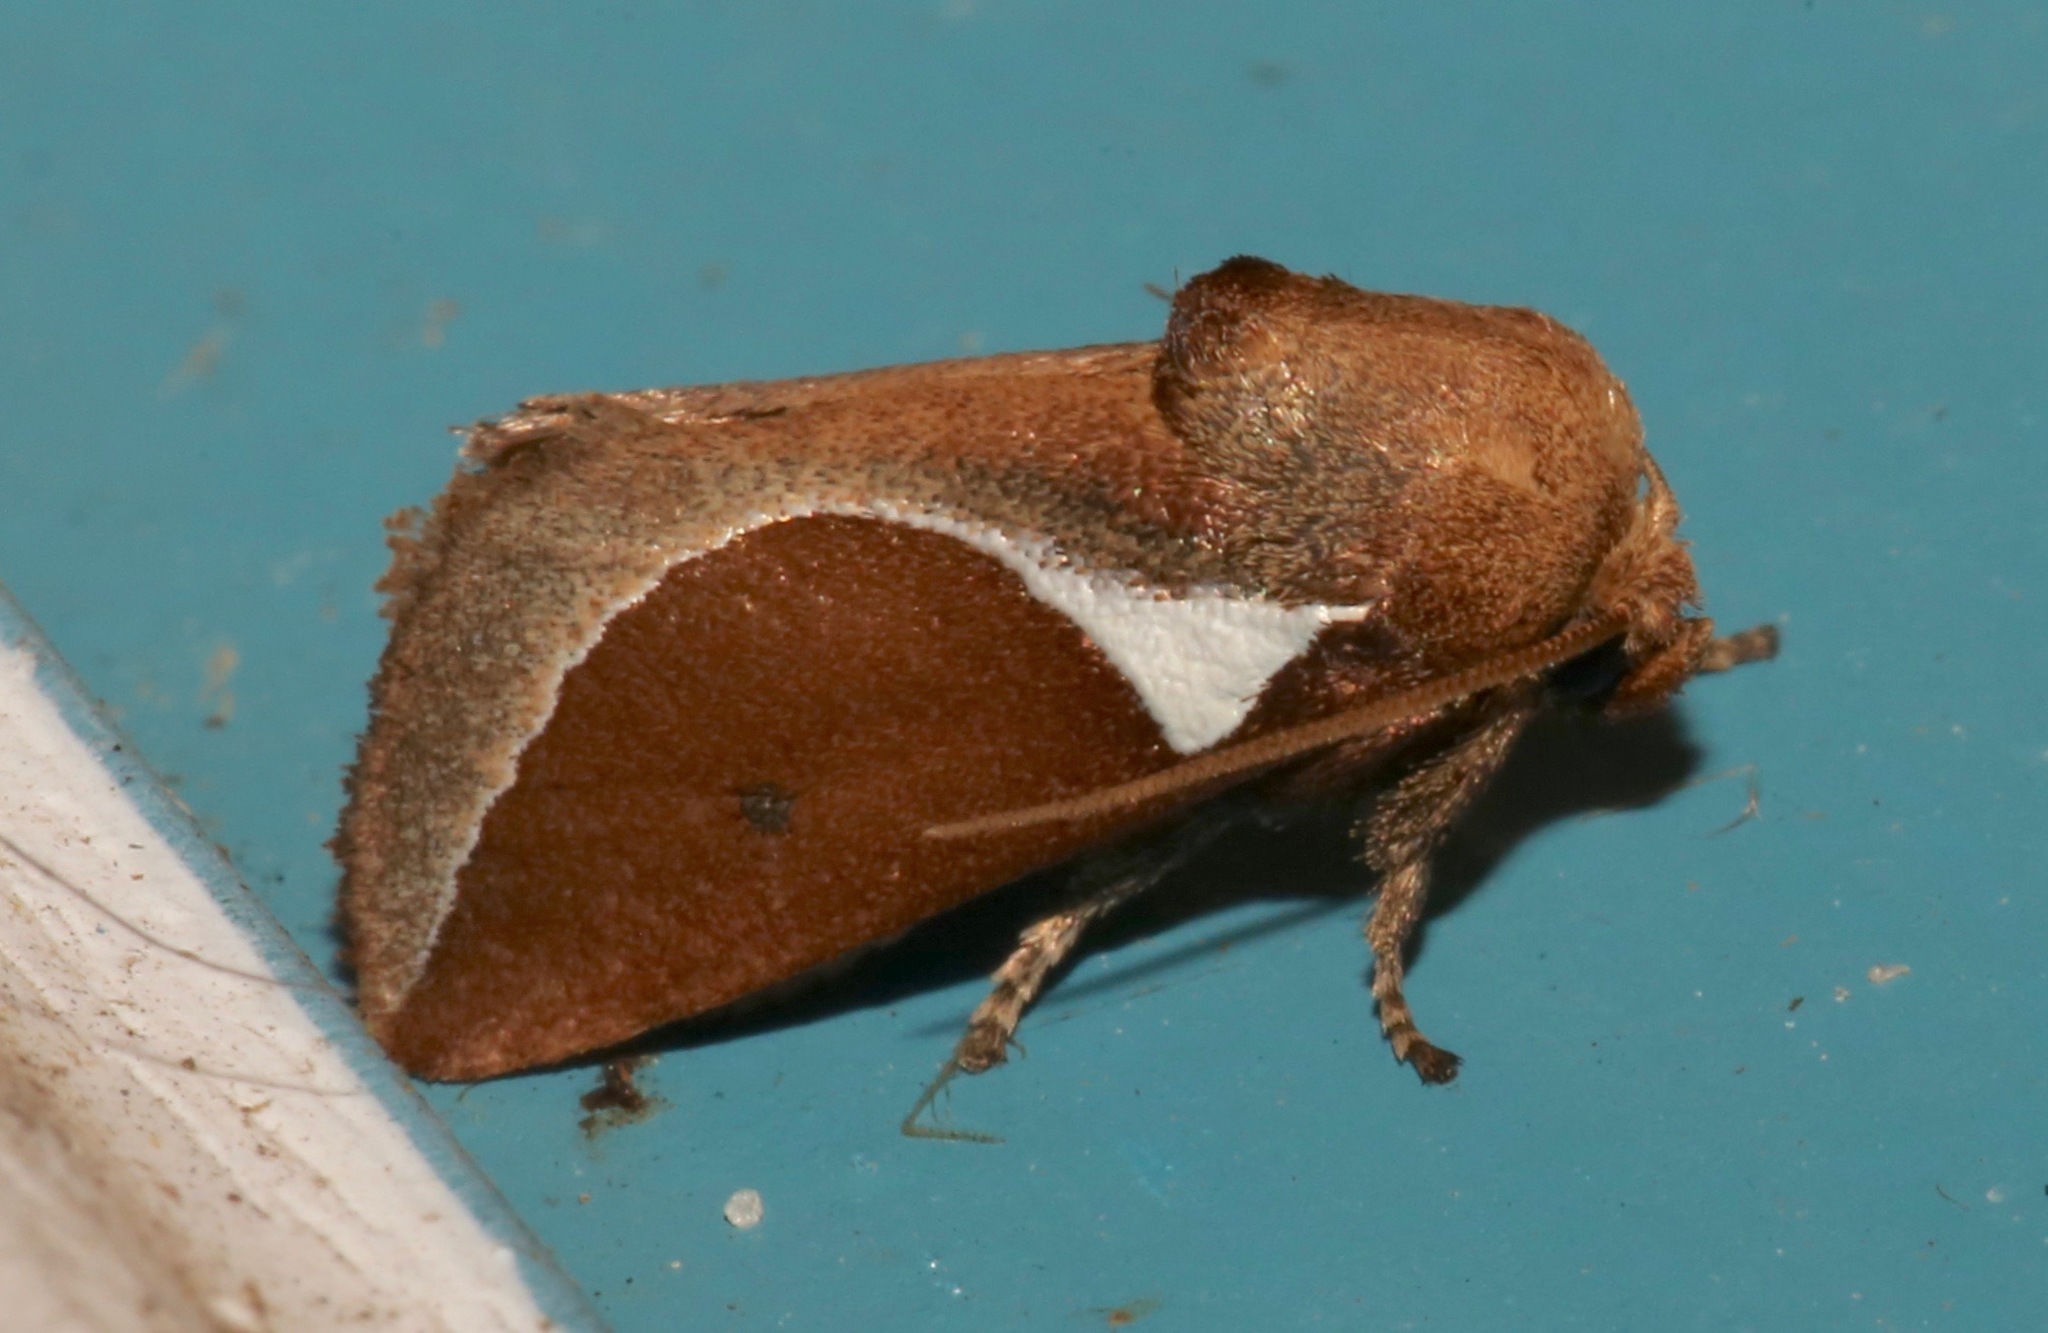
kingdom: Animalia
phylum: Arthropoda
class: Insecta
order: Lepidoptera
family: Limacodidae
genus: Prolimacodes
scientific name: Prolimacodes badia
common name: Skiff moth
